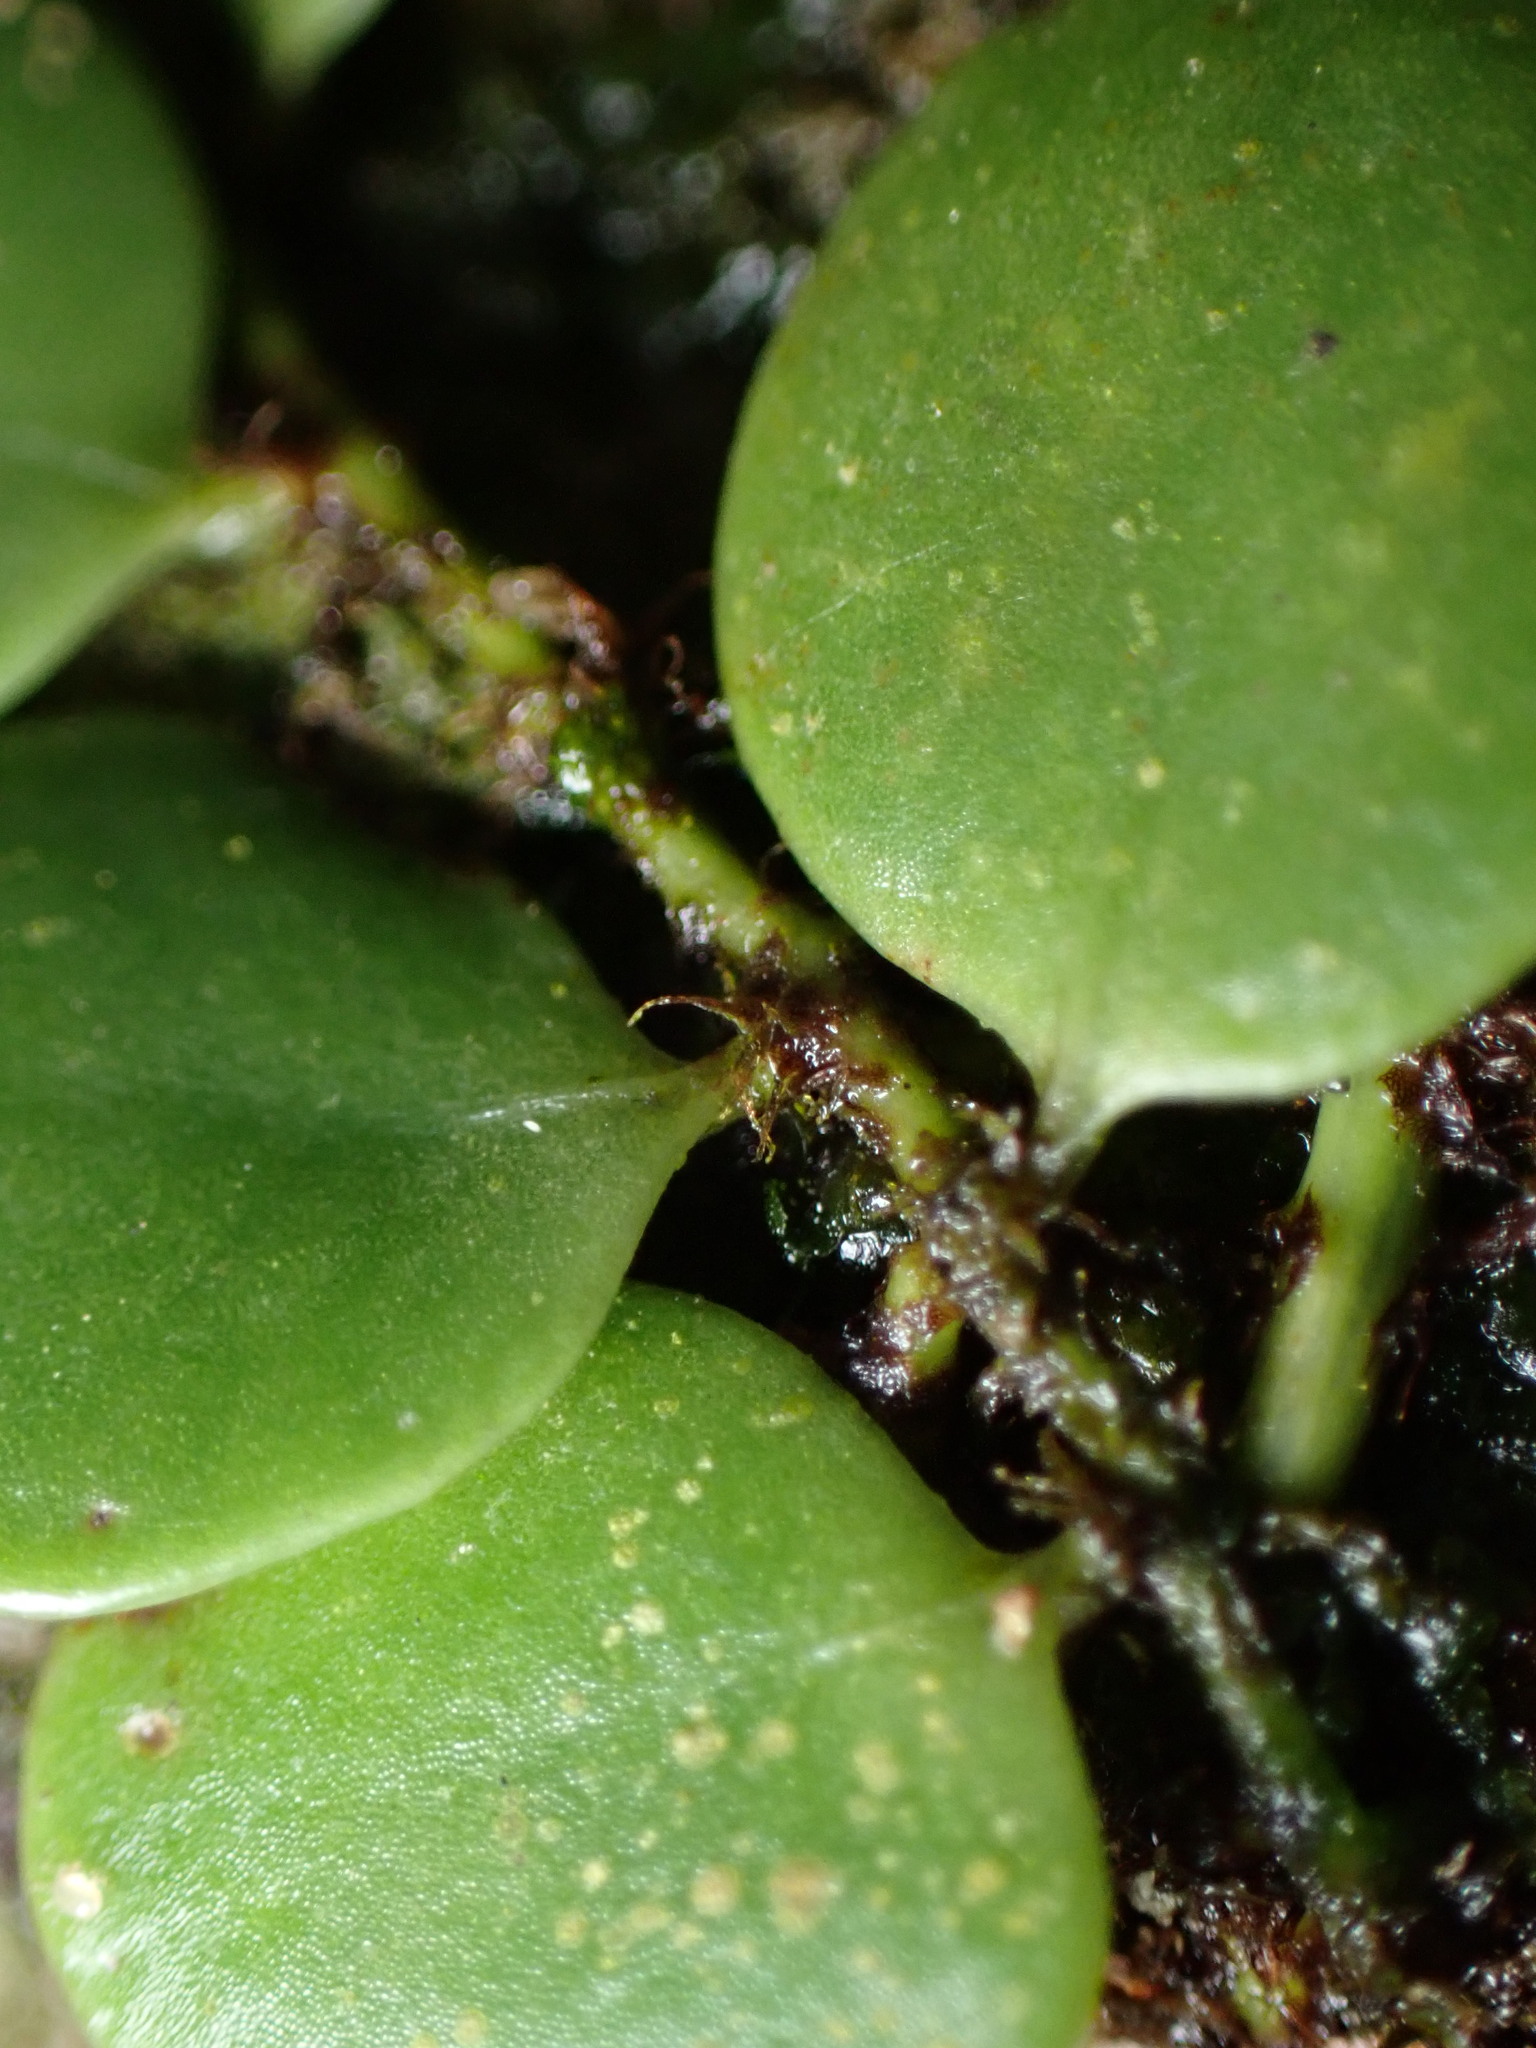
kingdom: Plantae
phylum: Tracheophyta
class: Polypodiopsida
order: Polypodiales
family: Polypodiaceae
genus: Lepisorus
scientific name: Lepisorus microphyllus
